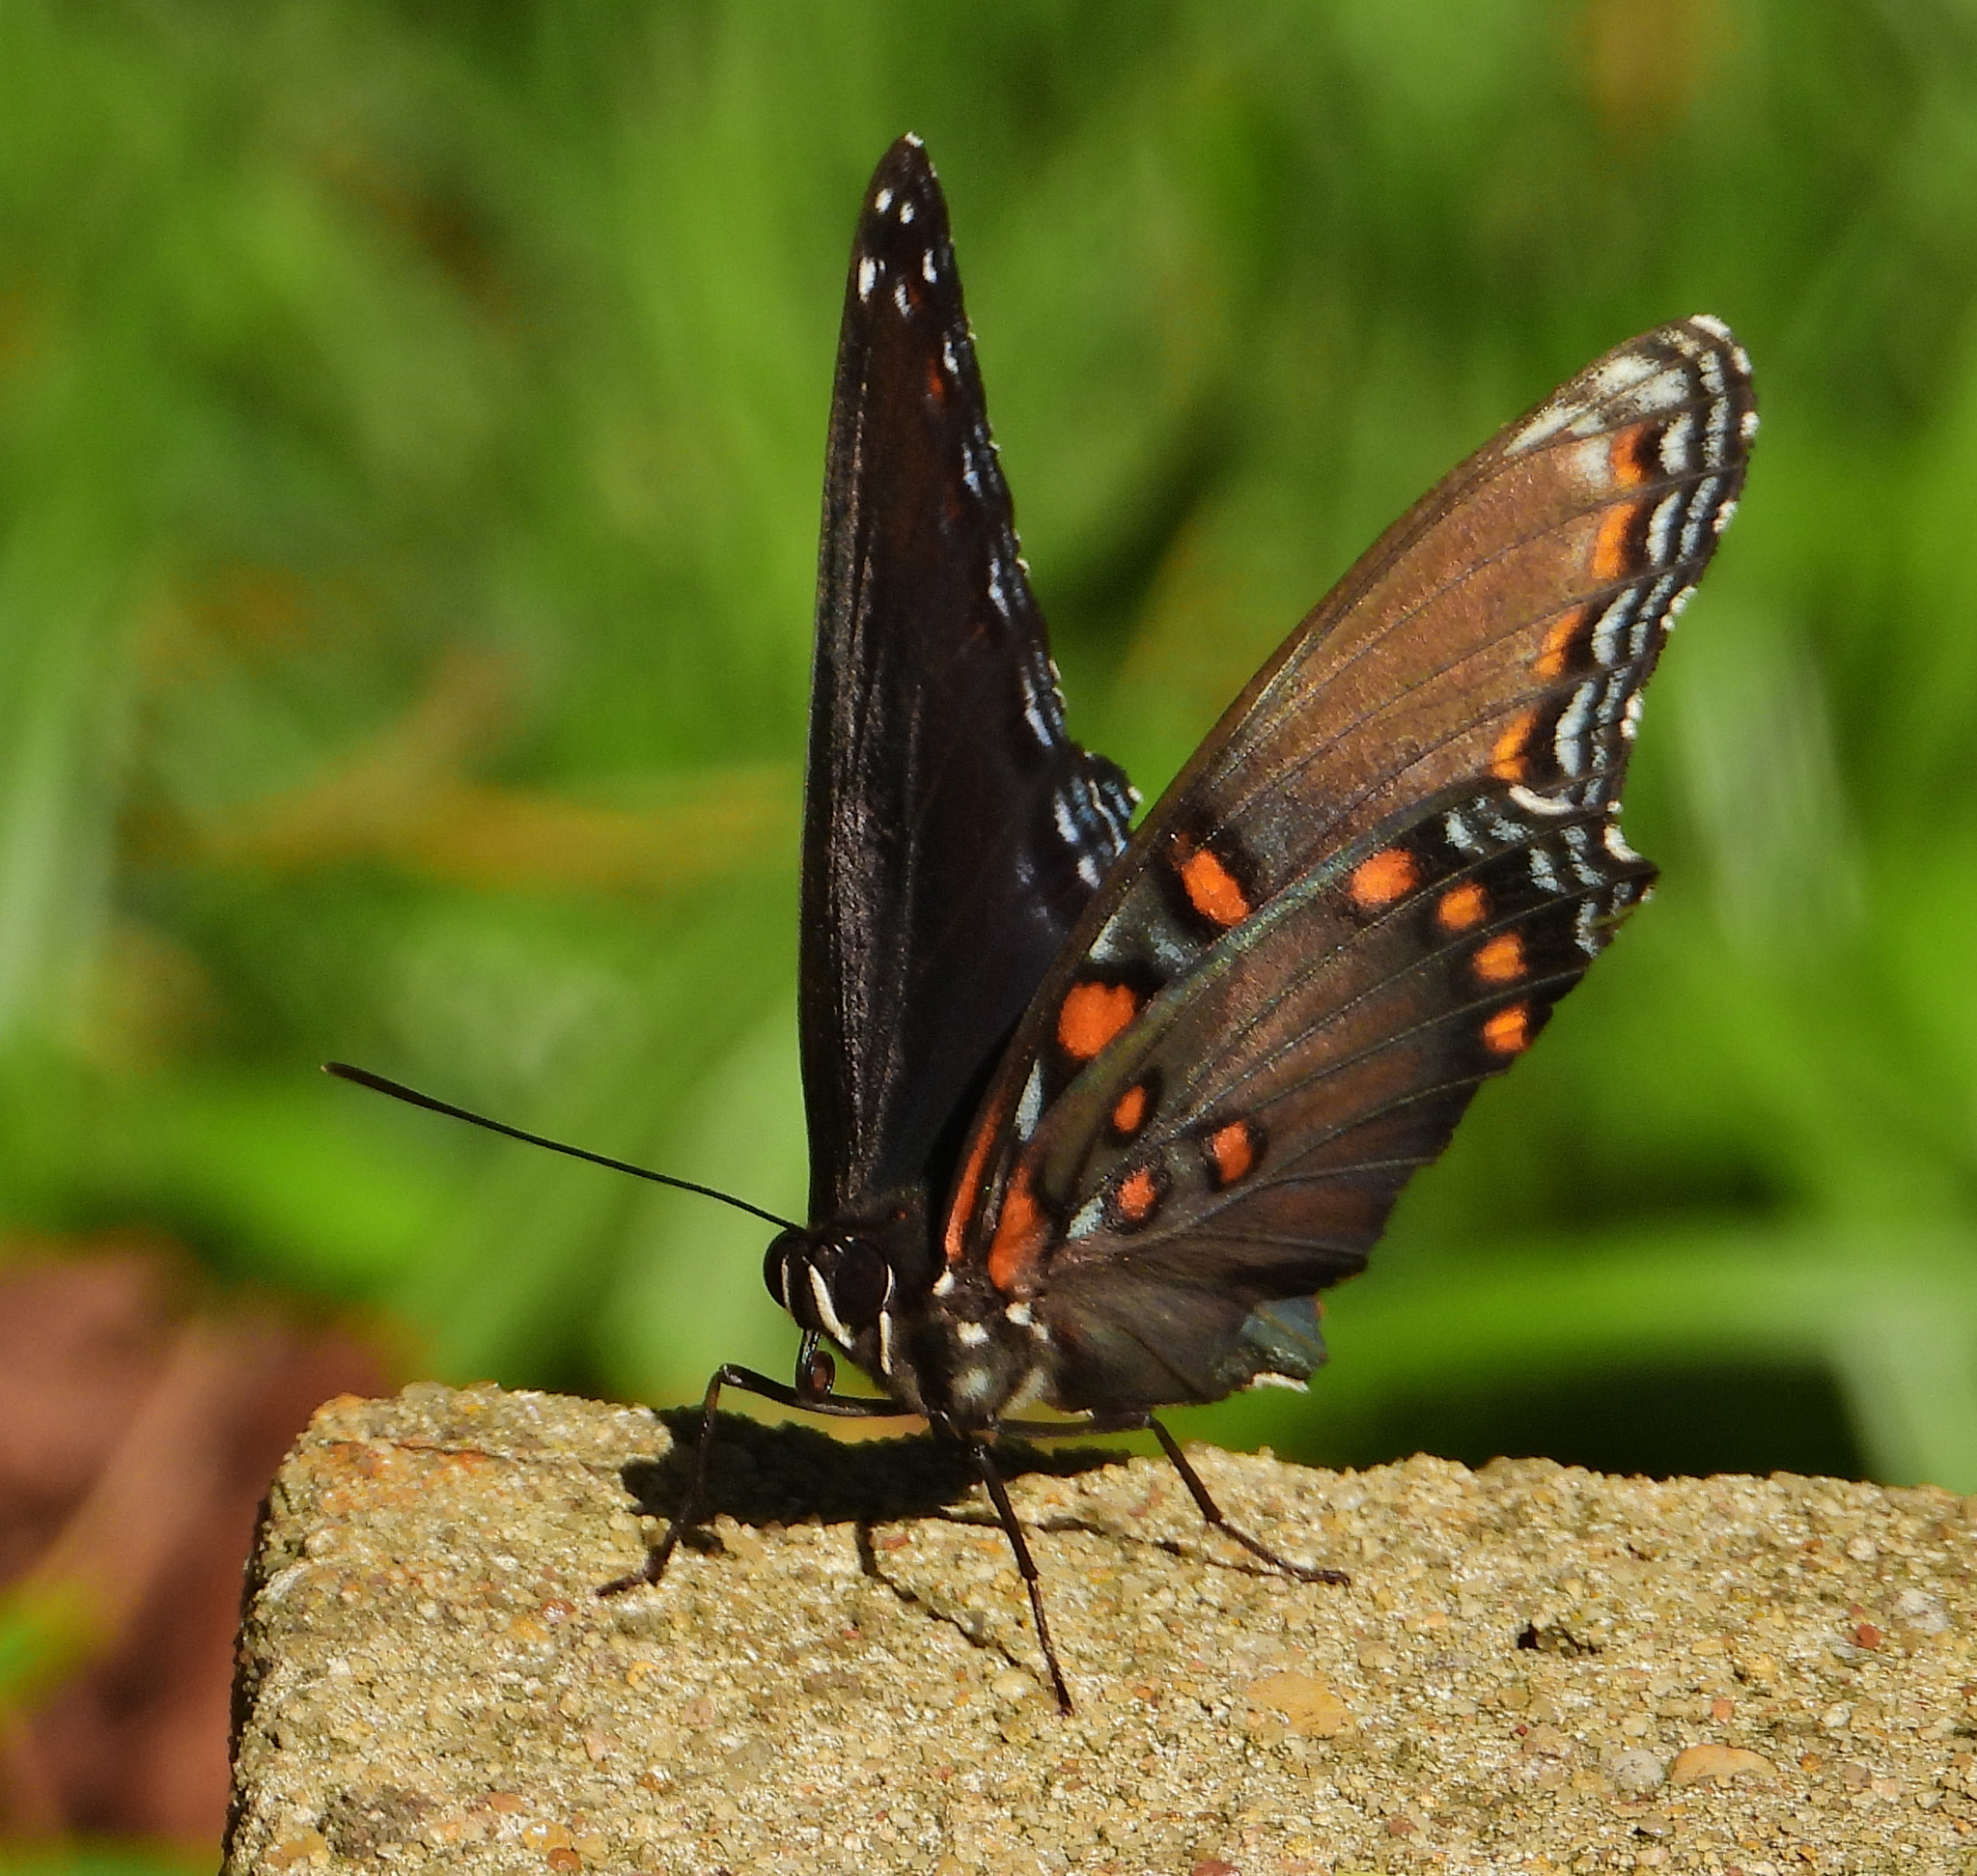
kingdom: Animalia
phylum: Arthropoda
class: Insecta
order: Lepidoptera
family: Nymphalidae
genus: Limenitis
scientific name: Limenitis astyanax
